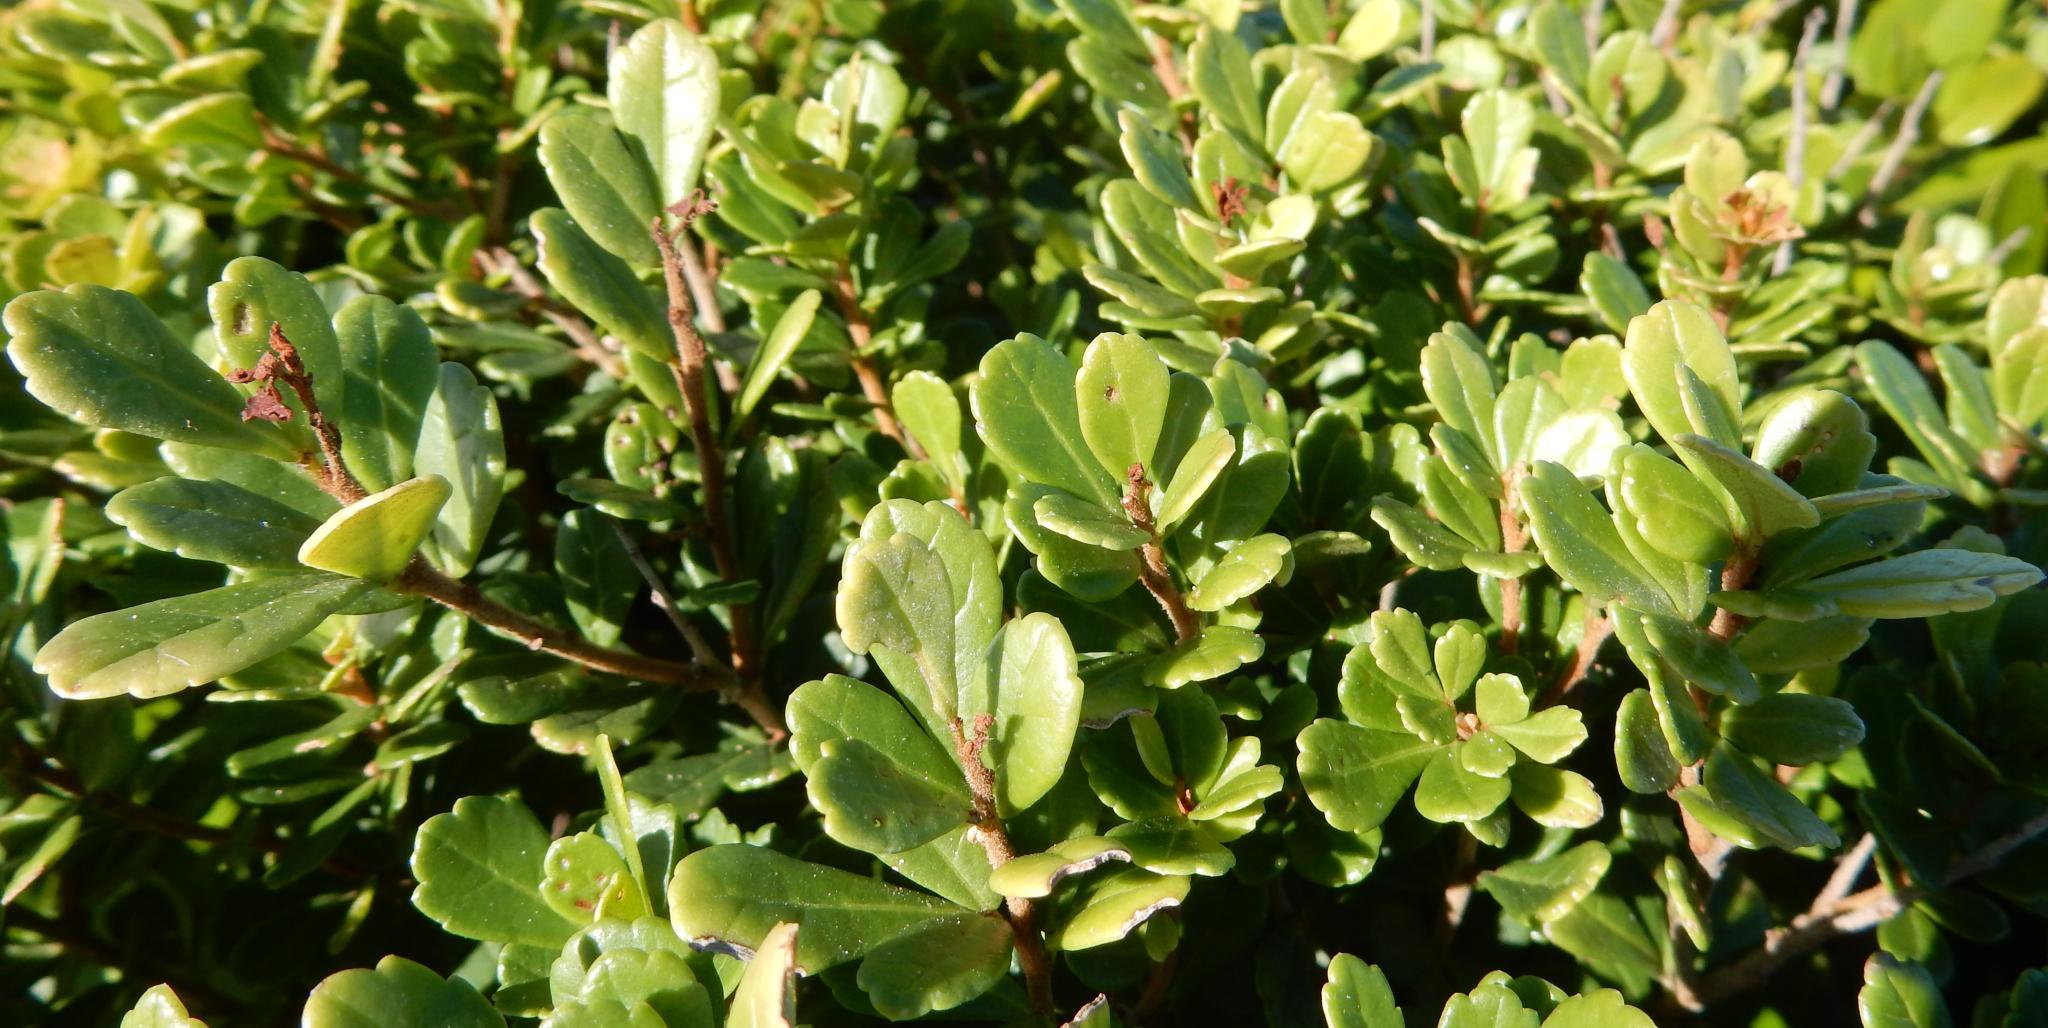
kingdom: Plantae
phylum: Tracheophyta
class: Magnoliopsida
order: Sapindales
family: Anacardiaceae
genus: Searsia
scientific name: Searsia crenata
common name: Crowberry
